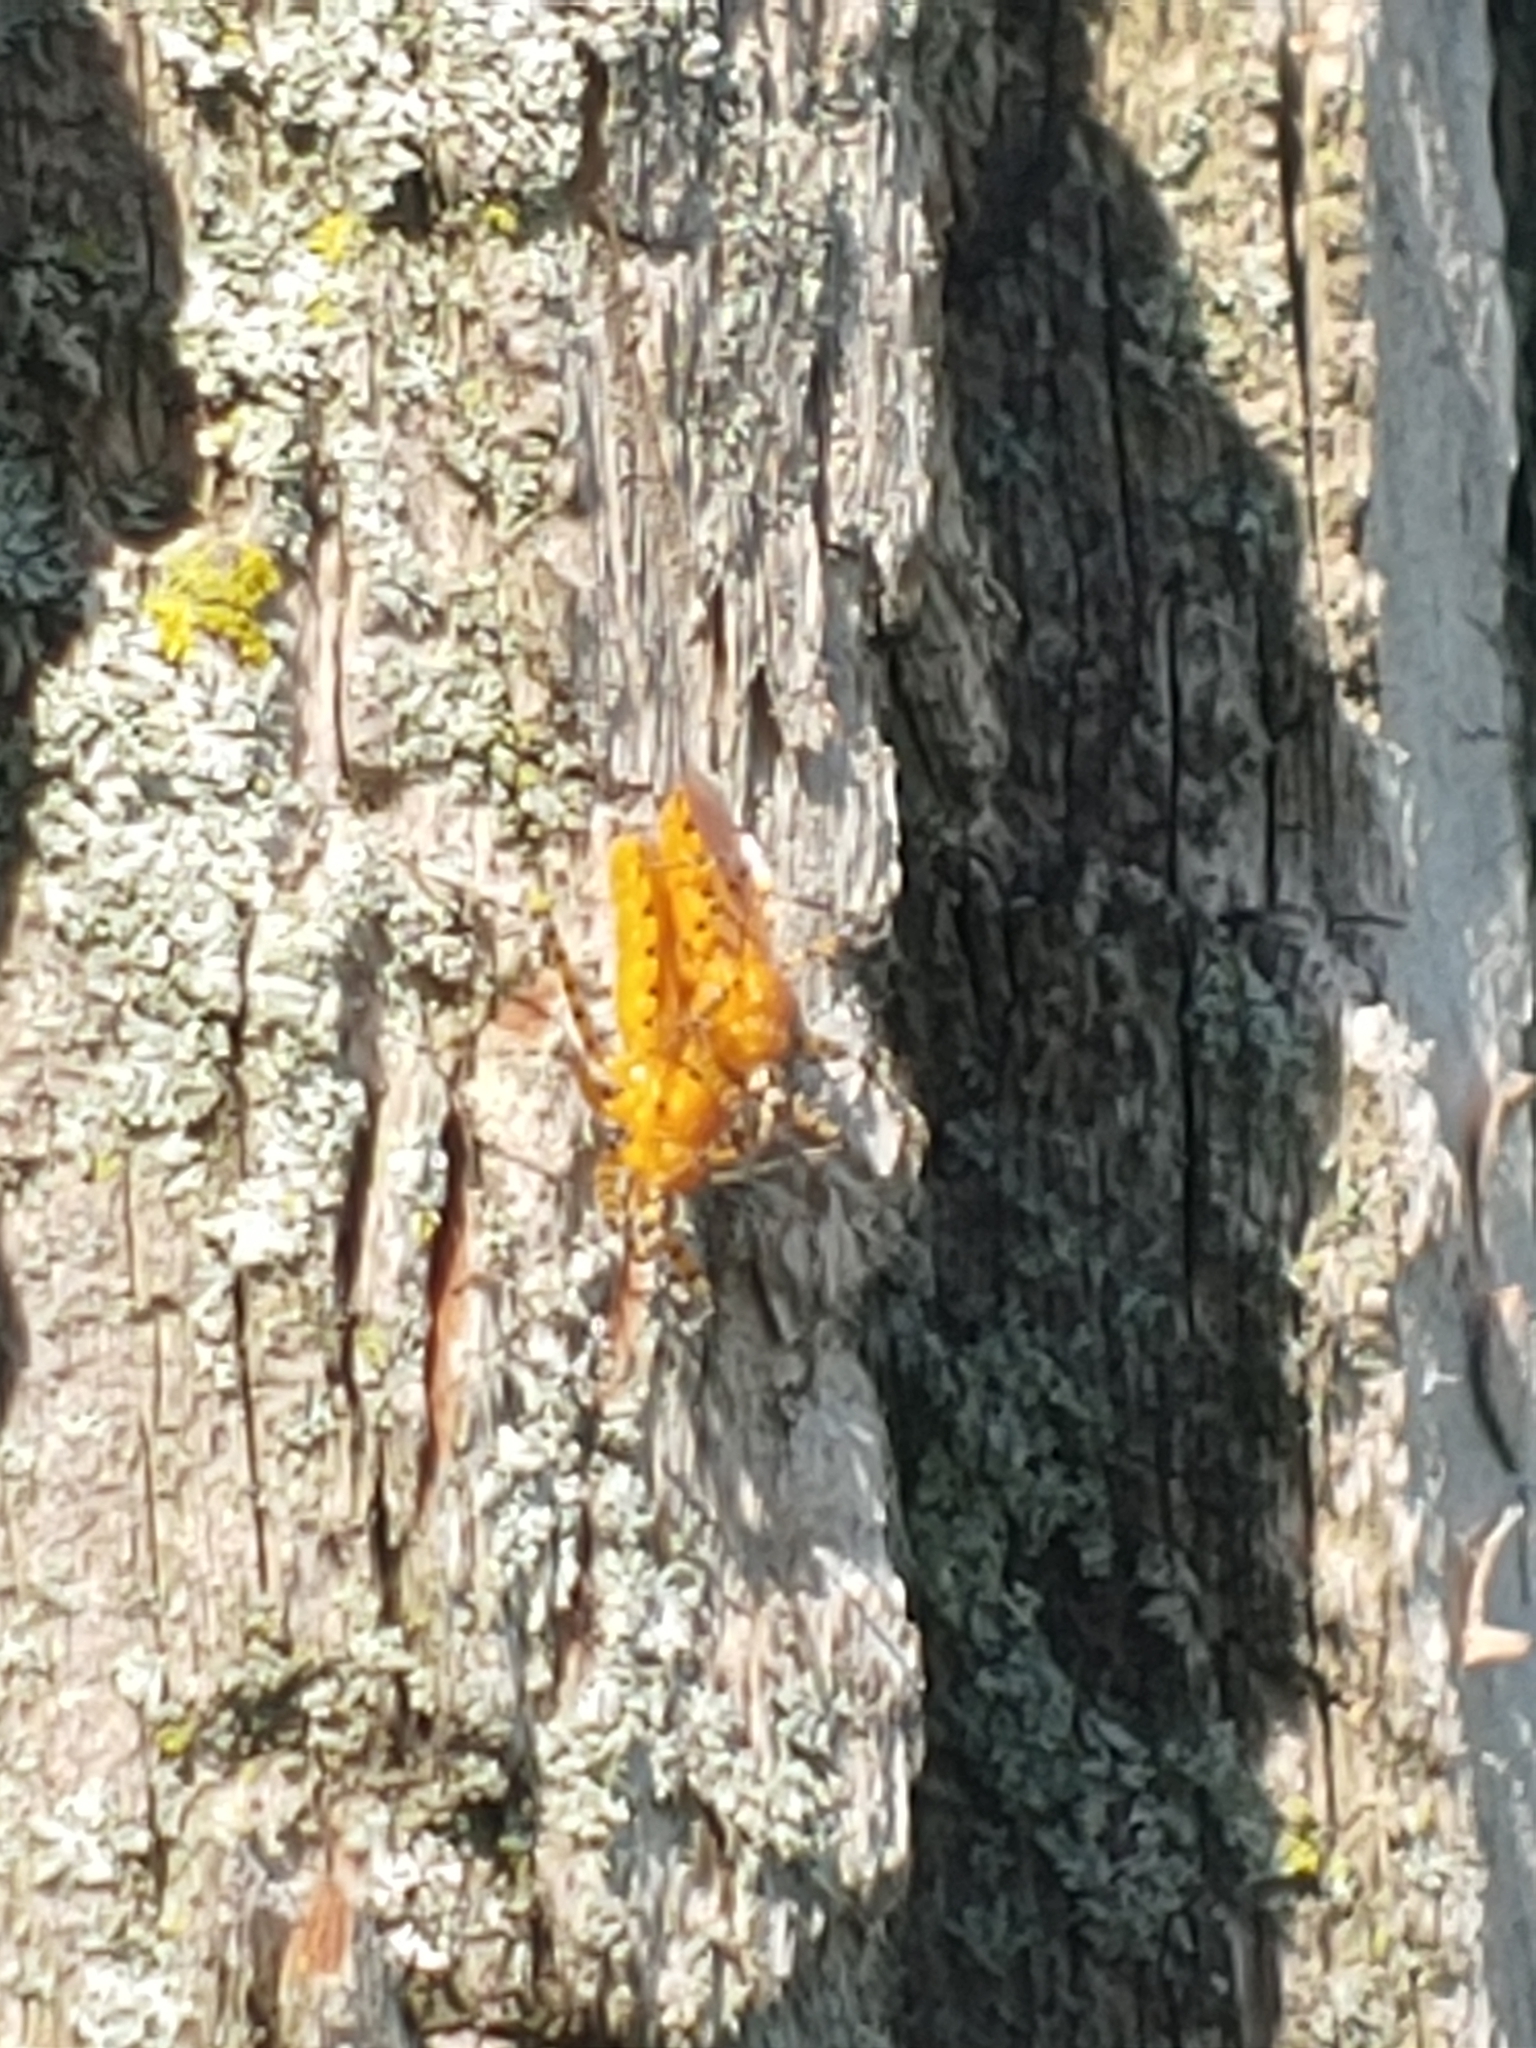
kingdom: Animalia
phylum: Arthropoda
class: Insecta
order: Hemiptera
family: Reduviidae
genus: Pselliopus
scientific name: Pselliopus barberi
